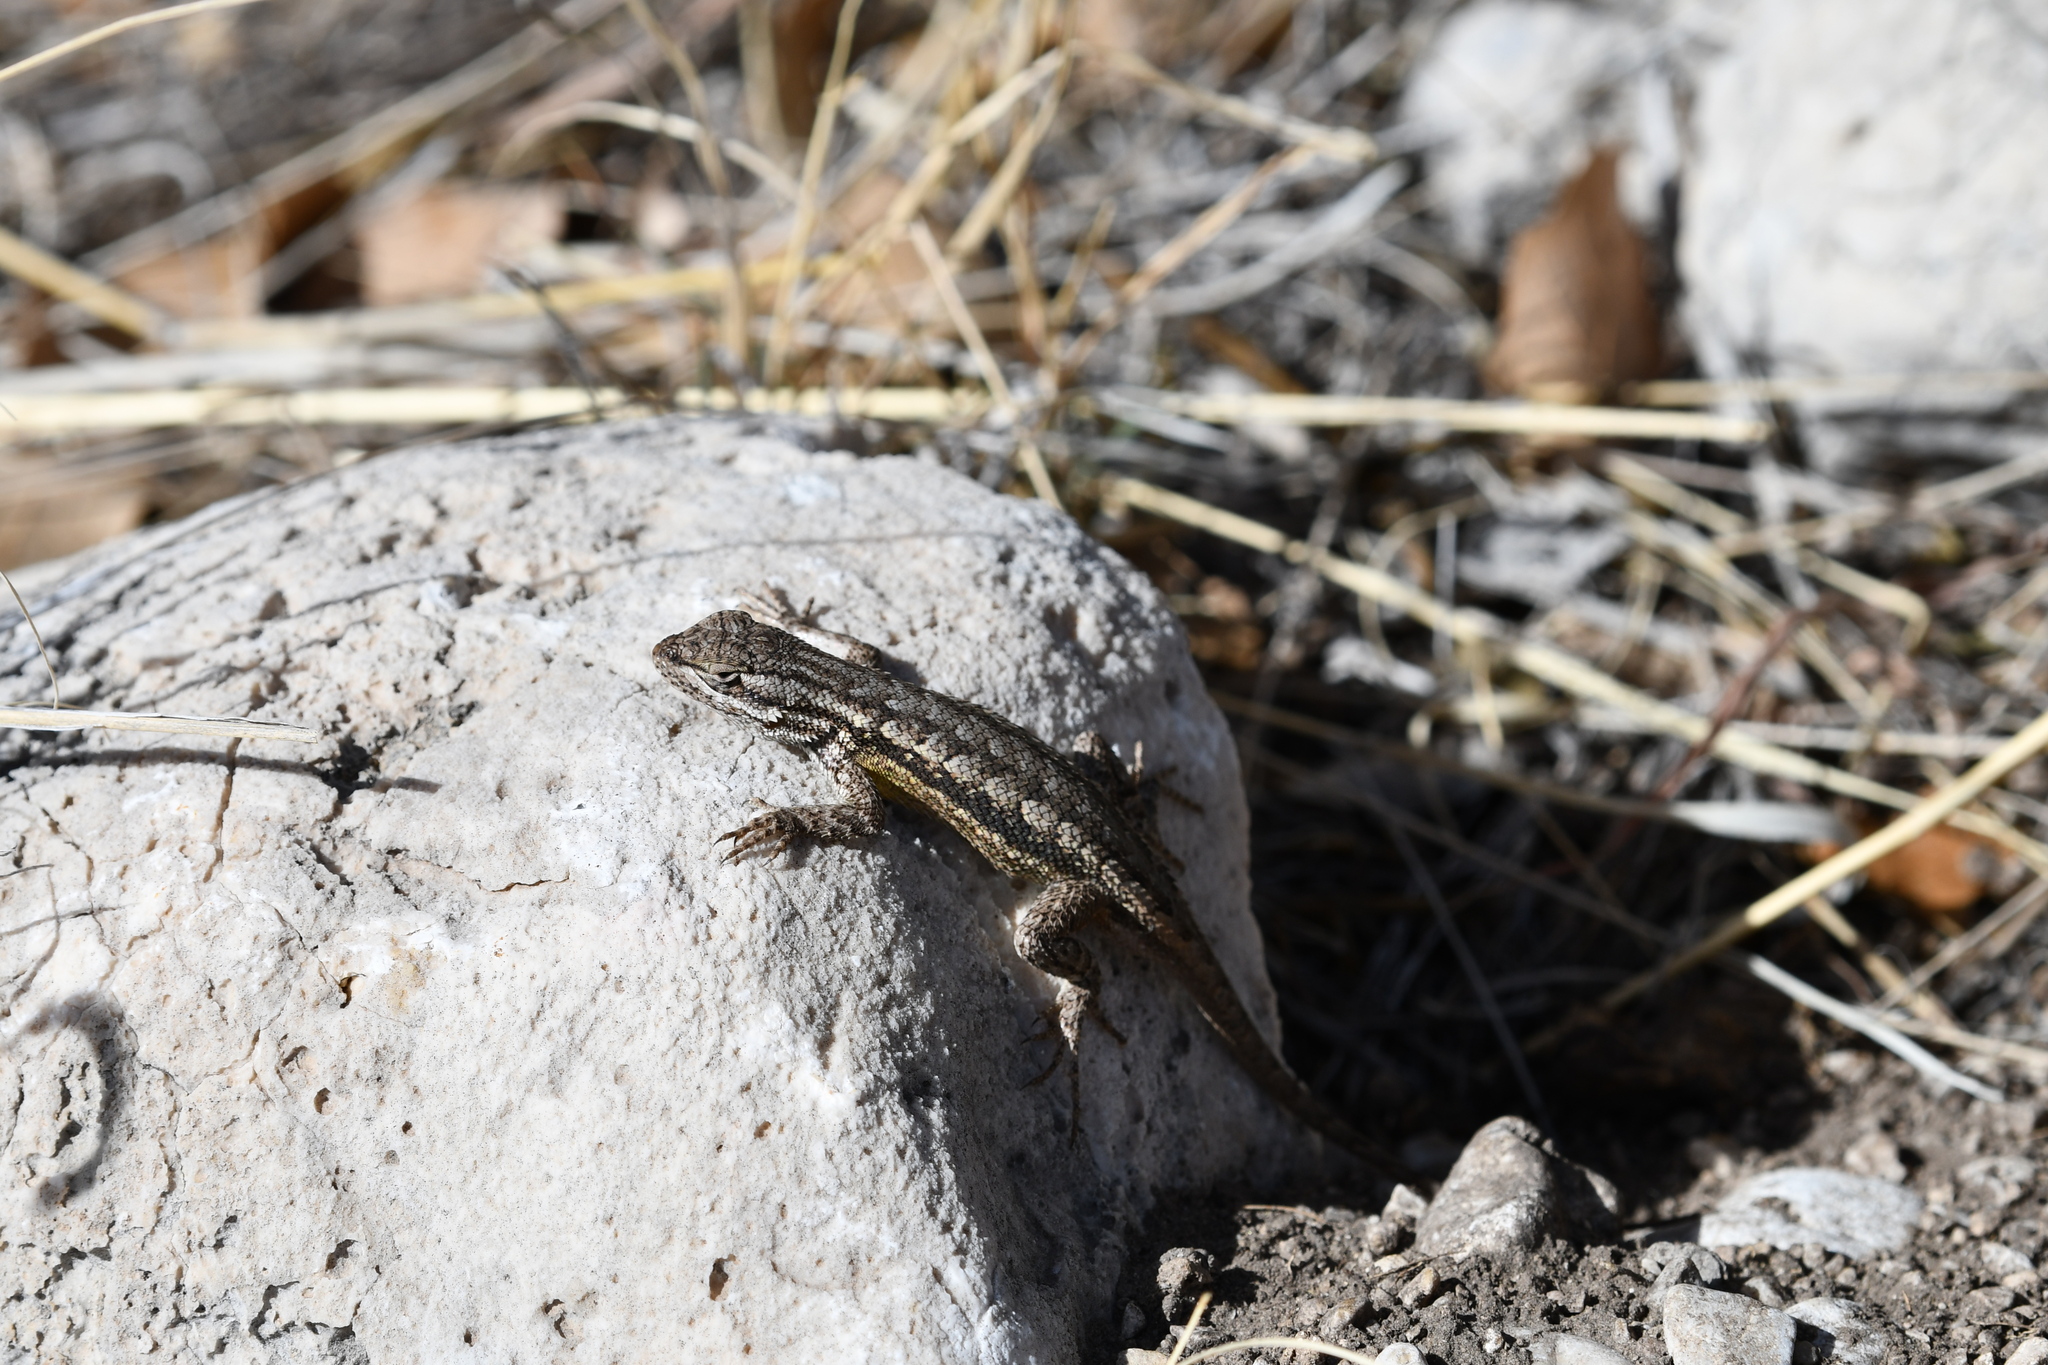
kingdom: Animalia
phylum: Chordata
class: Squamata
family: Phrynosomatidae
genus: Sceloporus
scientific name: Sceloporus cowlesi
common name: White sands prairie lizard
